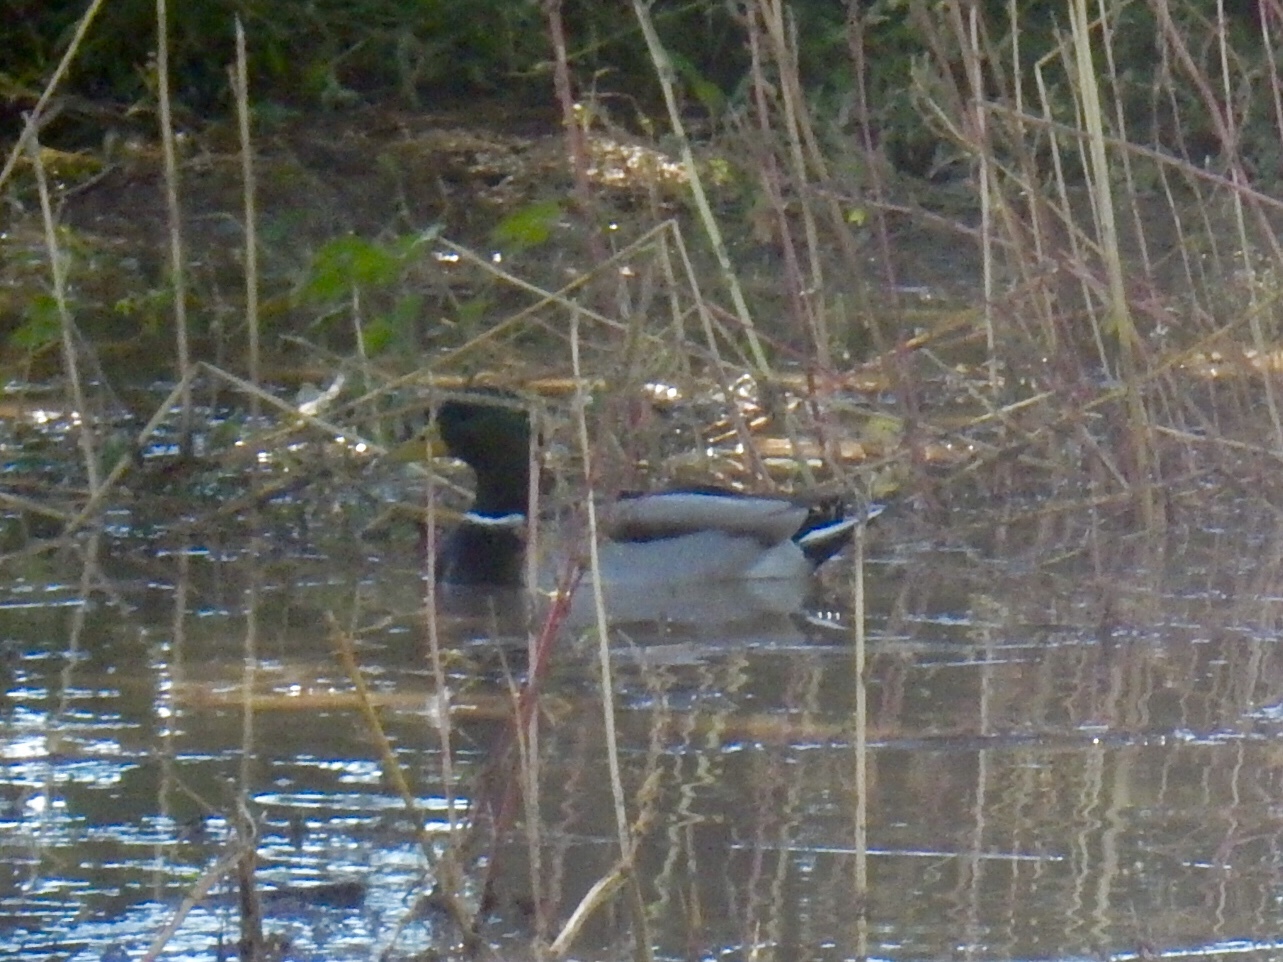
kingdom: Animalia
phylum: Chordata
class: Aves
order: Anseriformes
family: Anatidae
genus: Anas
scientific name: Anas platyrhynchos
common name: Mallard
